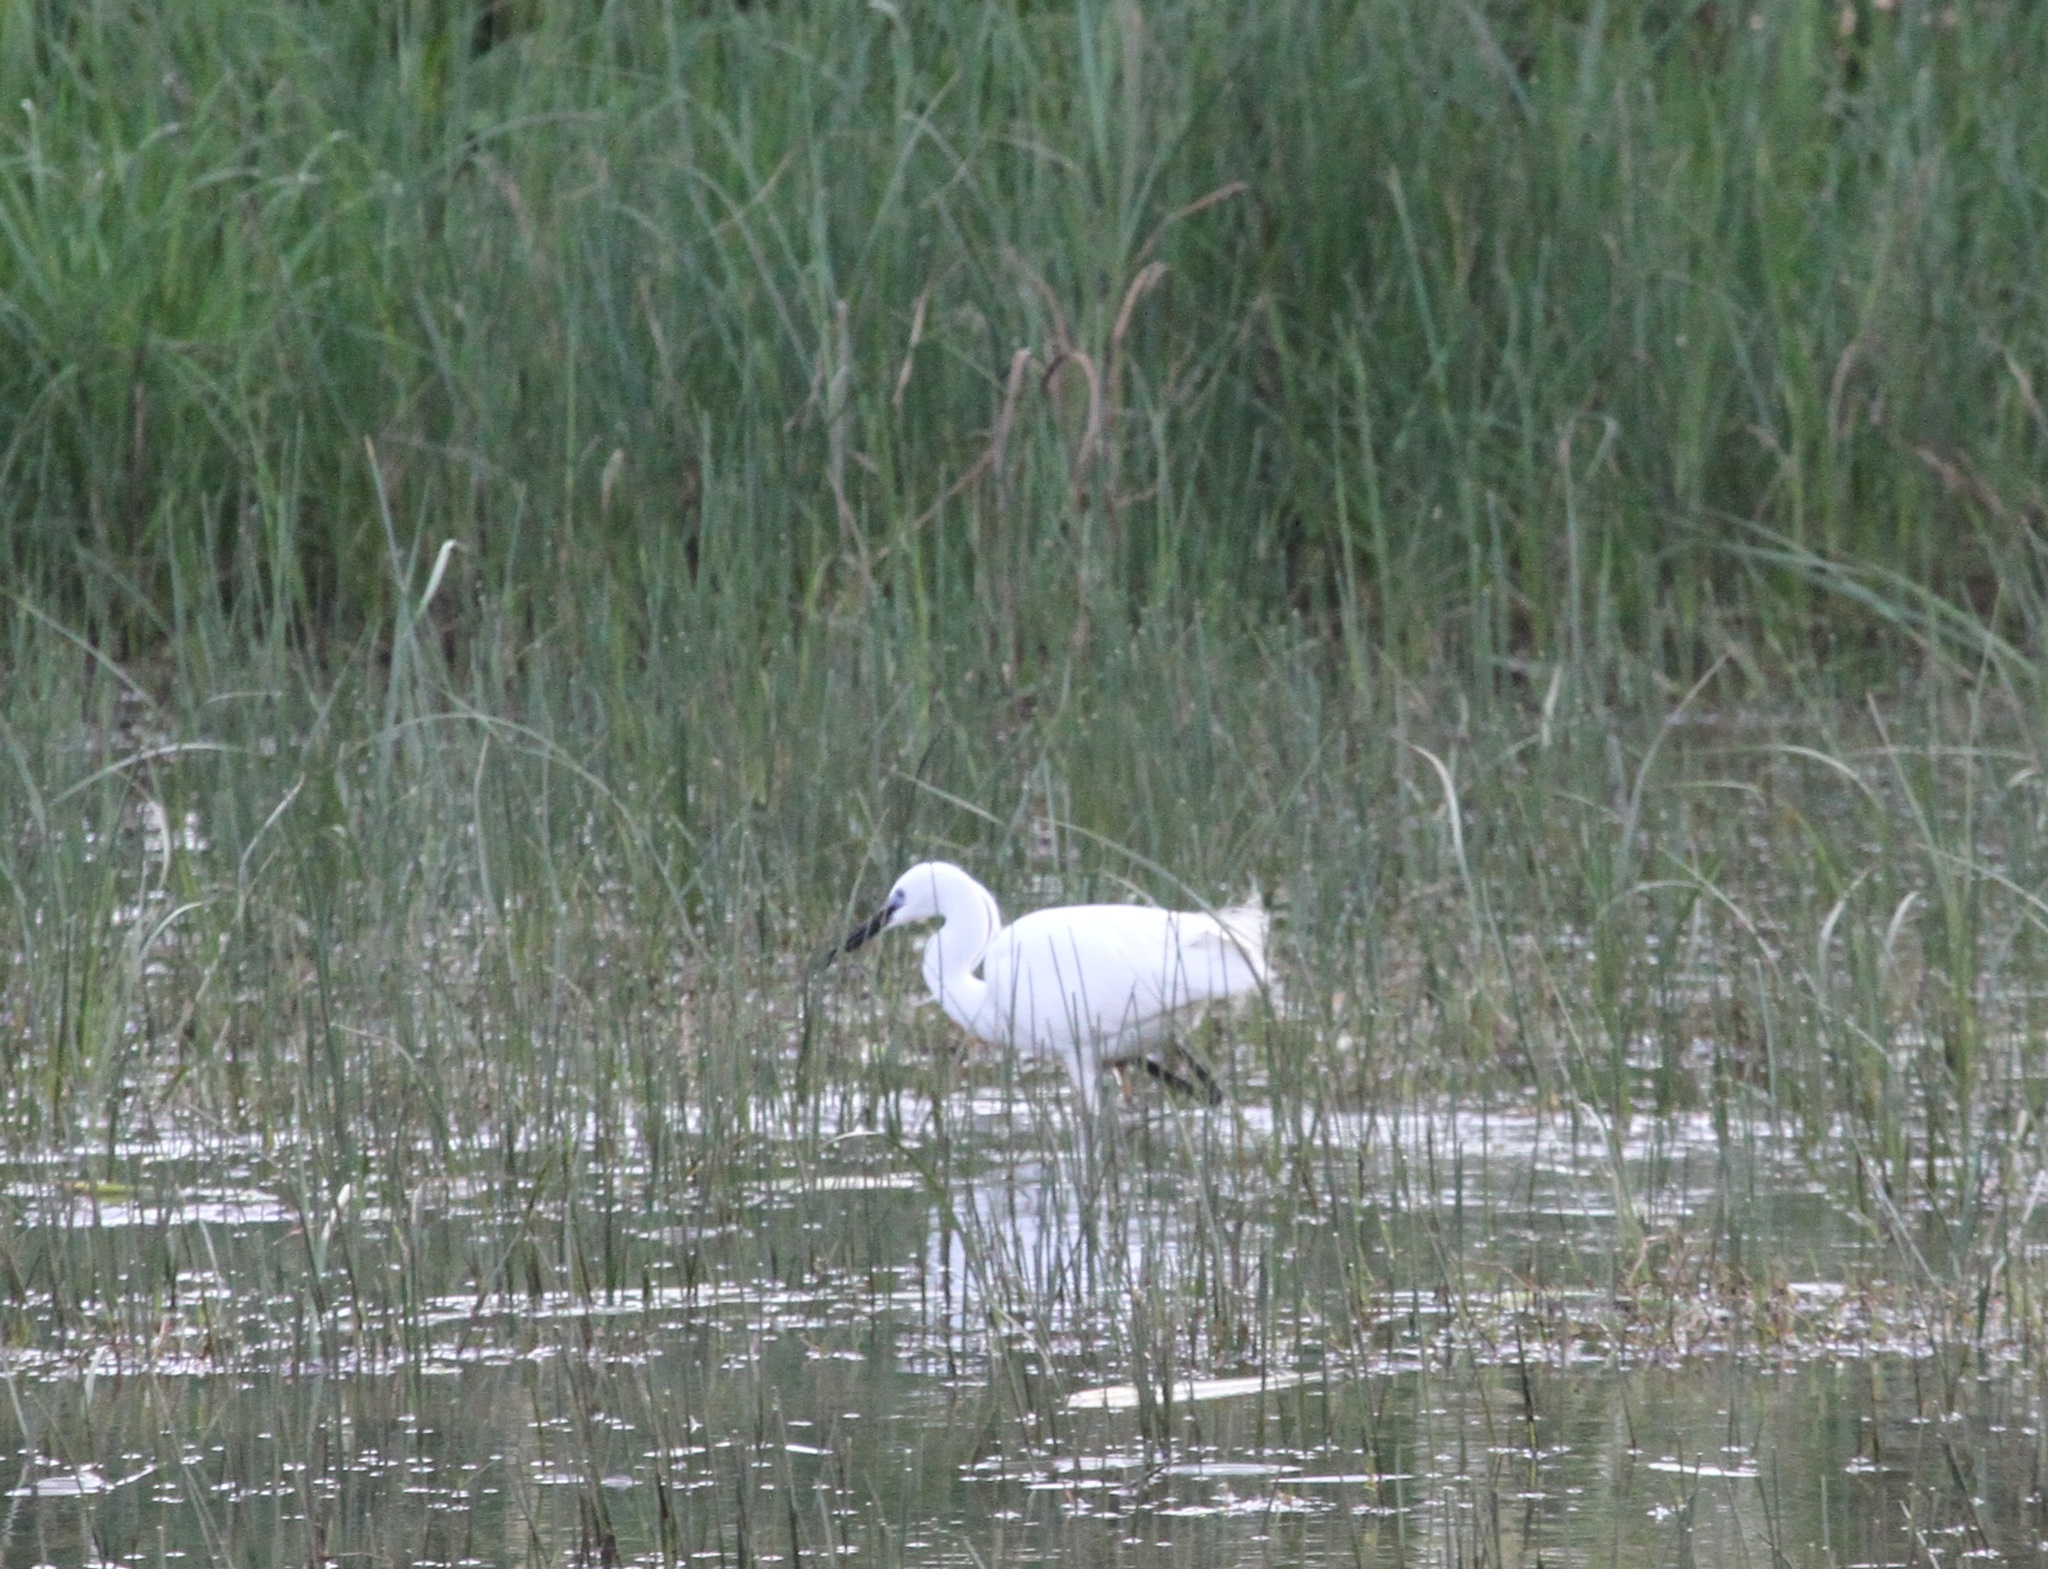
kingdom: Animalia
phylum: Chordata
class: Aves
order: Pelecaniformes
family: Ardeidae
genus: Egretta
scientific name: Egretta garzetta
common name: Little egret
